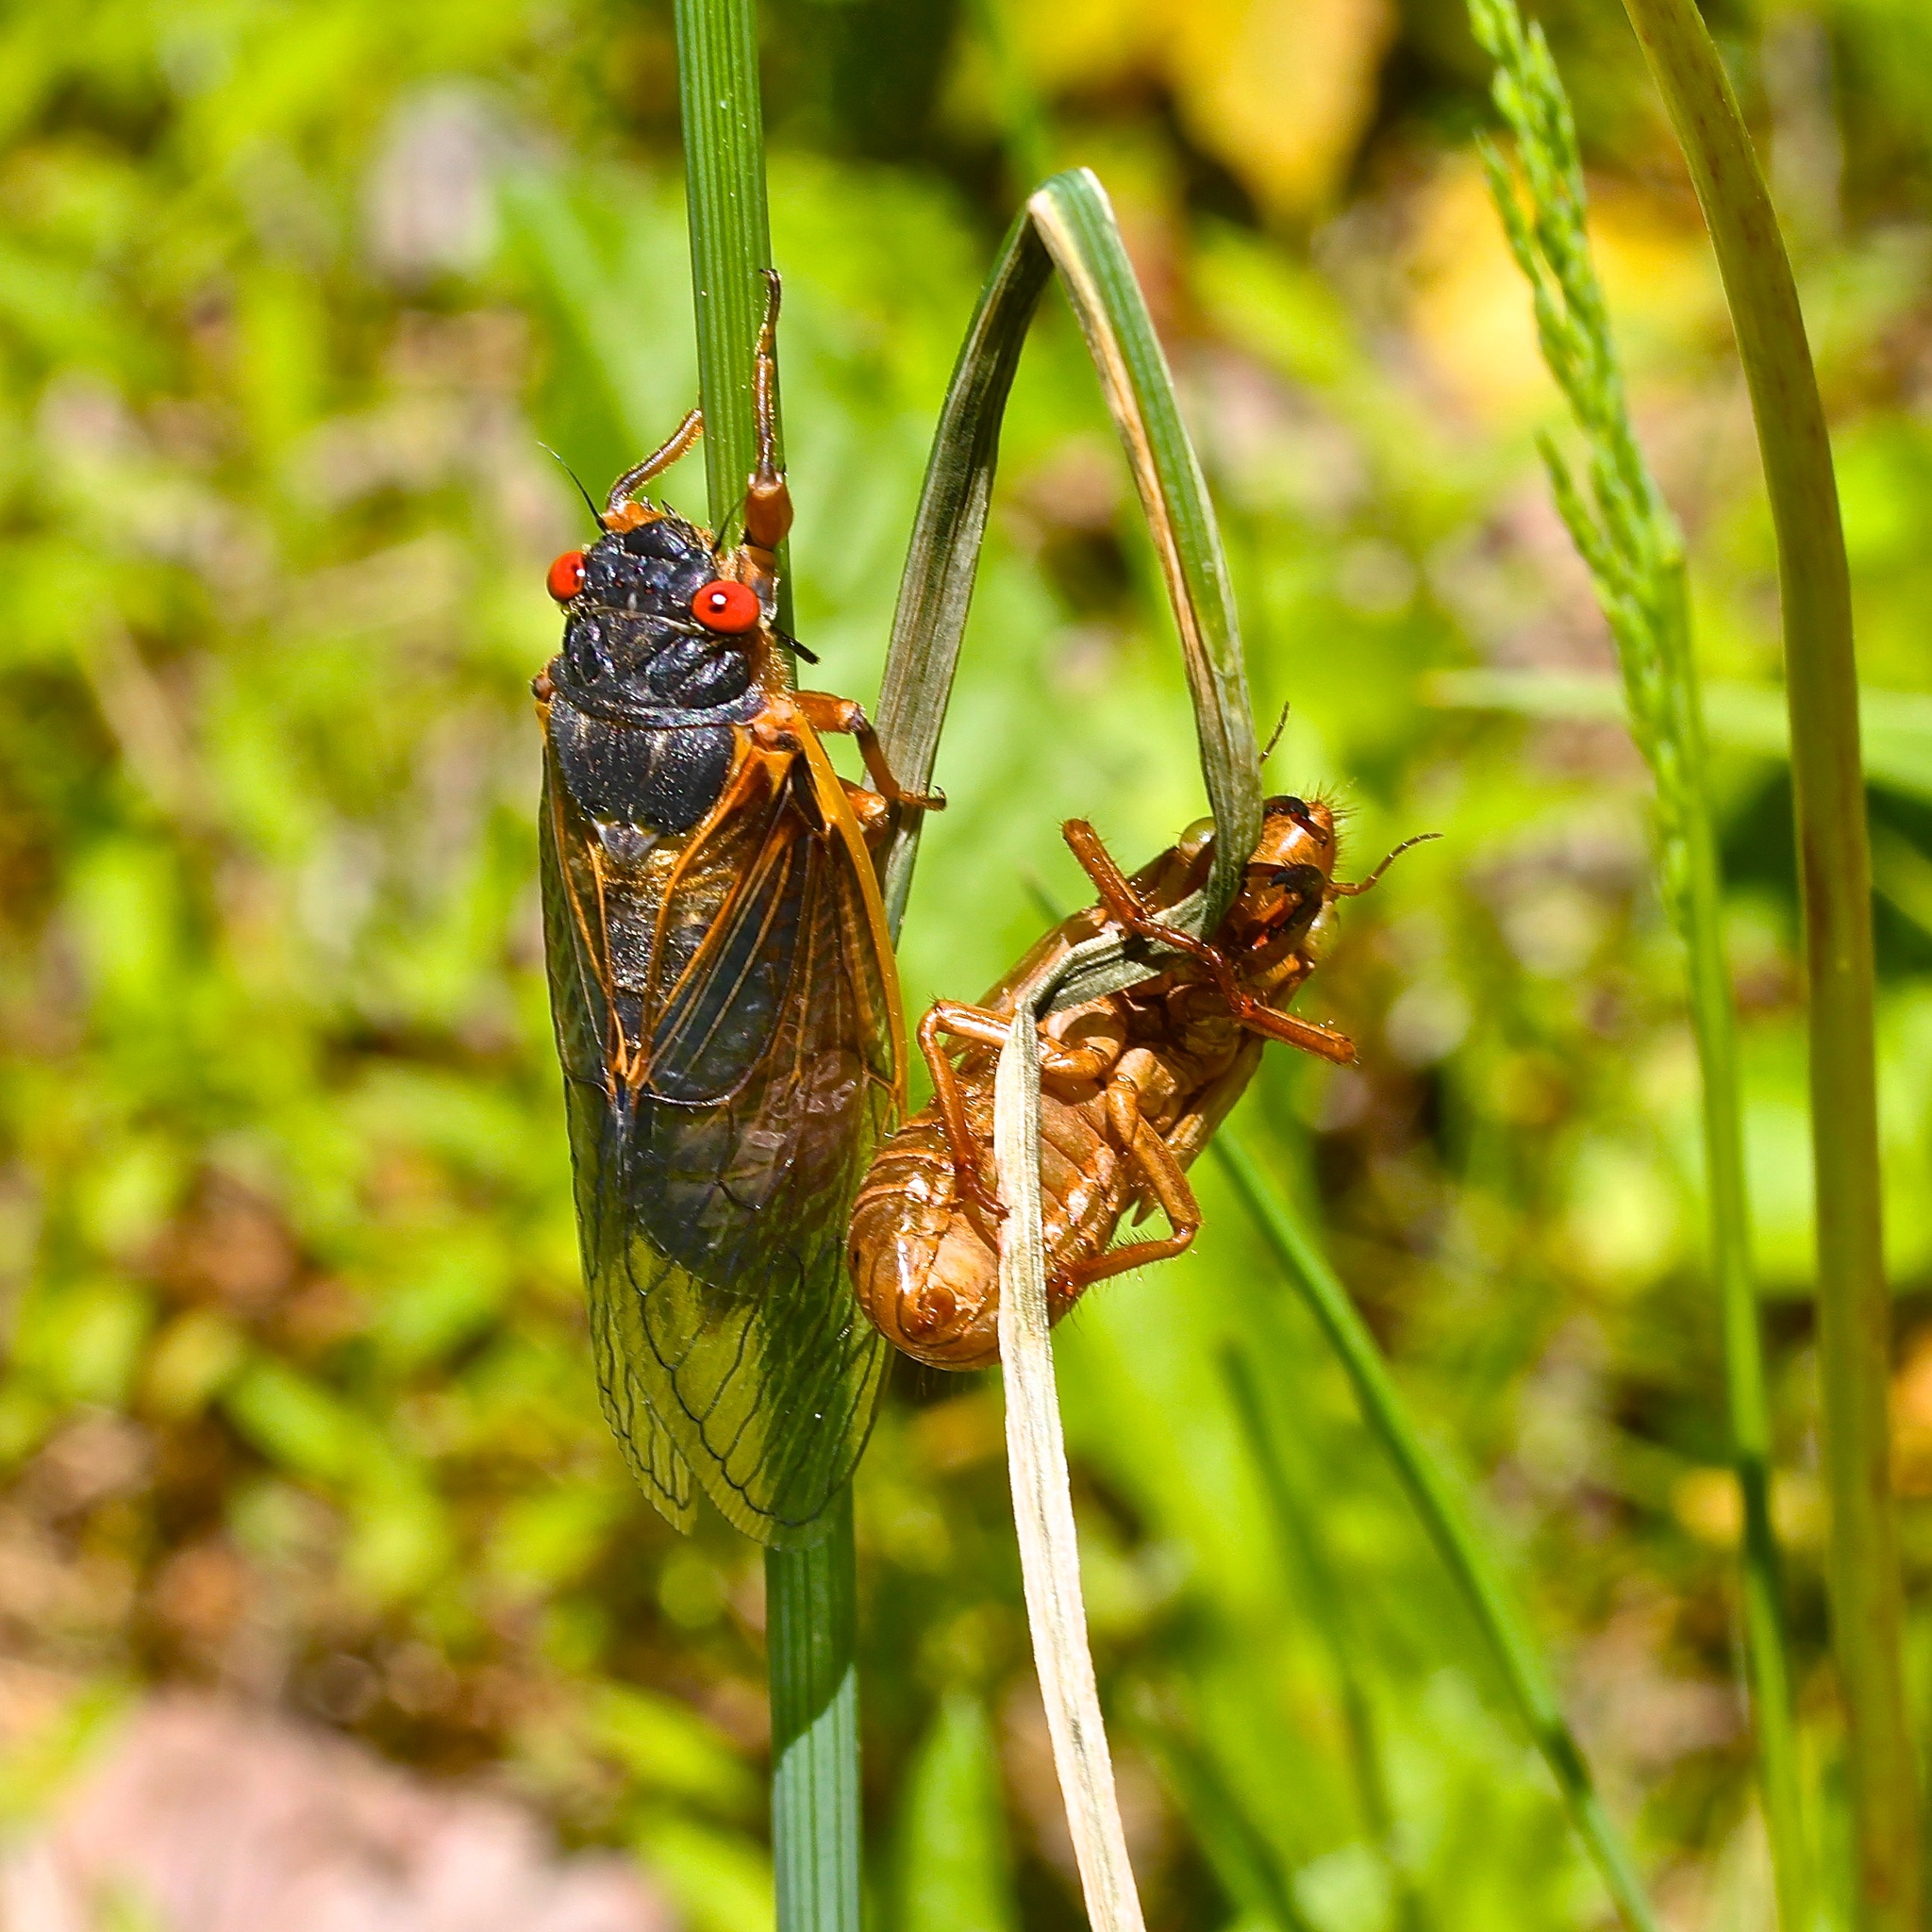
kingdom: Animalia
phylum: Arthropoda
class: Insecta
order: Hemiptera
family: Cicadidae
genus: Magicicada
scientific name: Magicicada septendecim
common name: Periodical cicada
